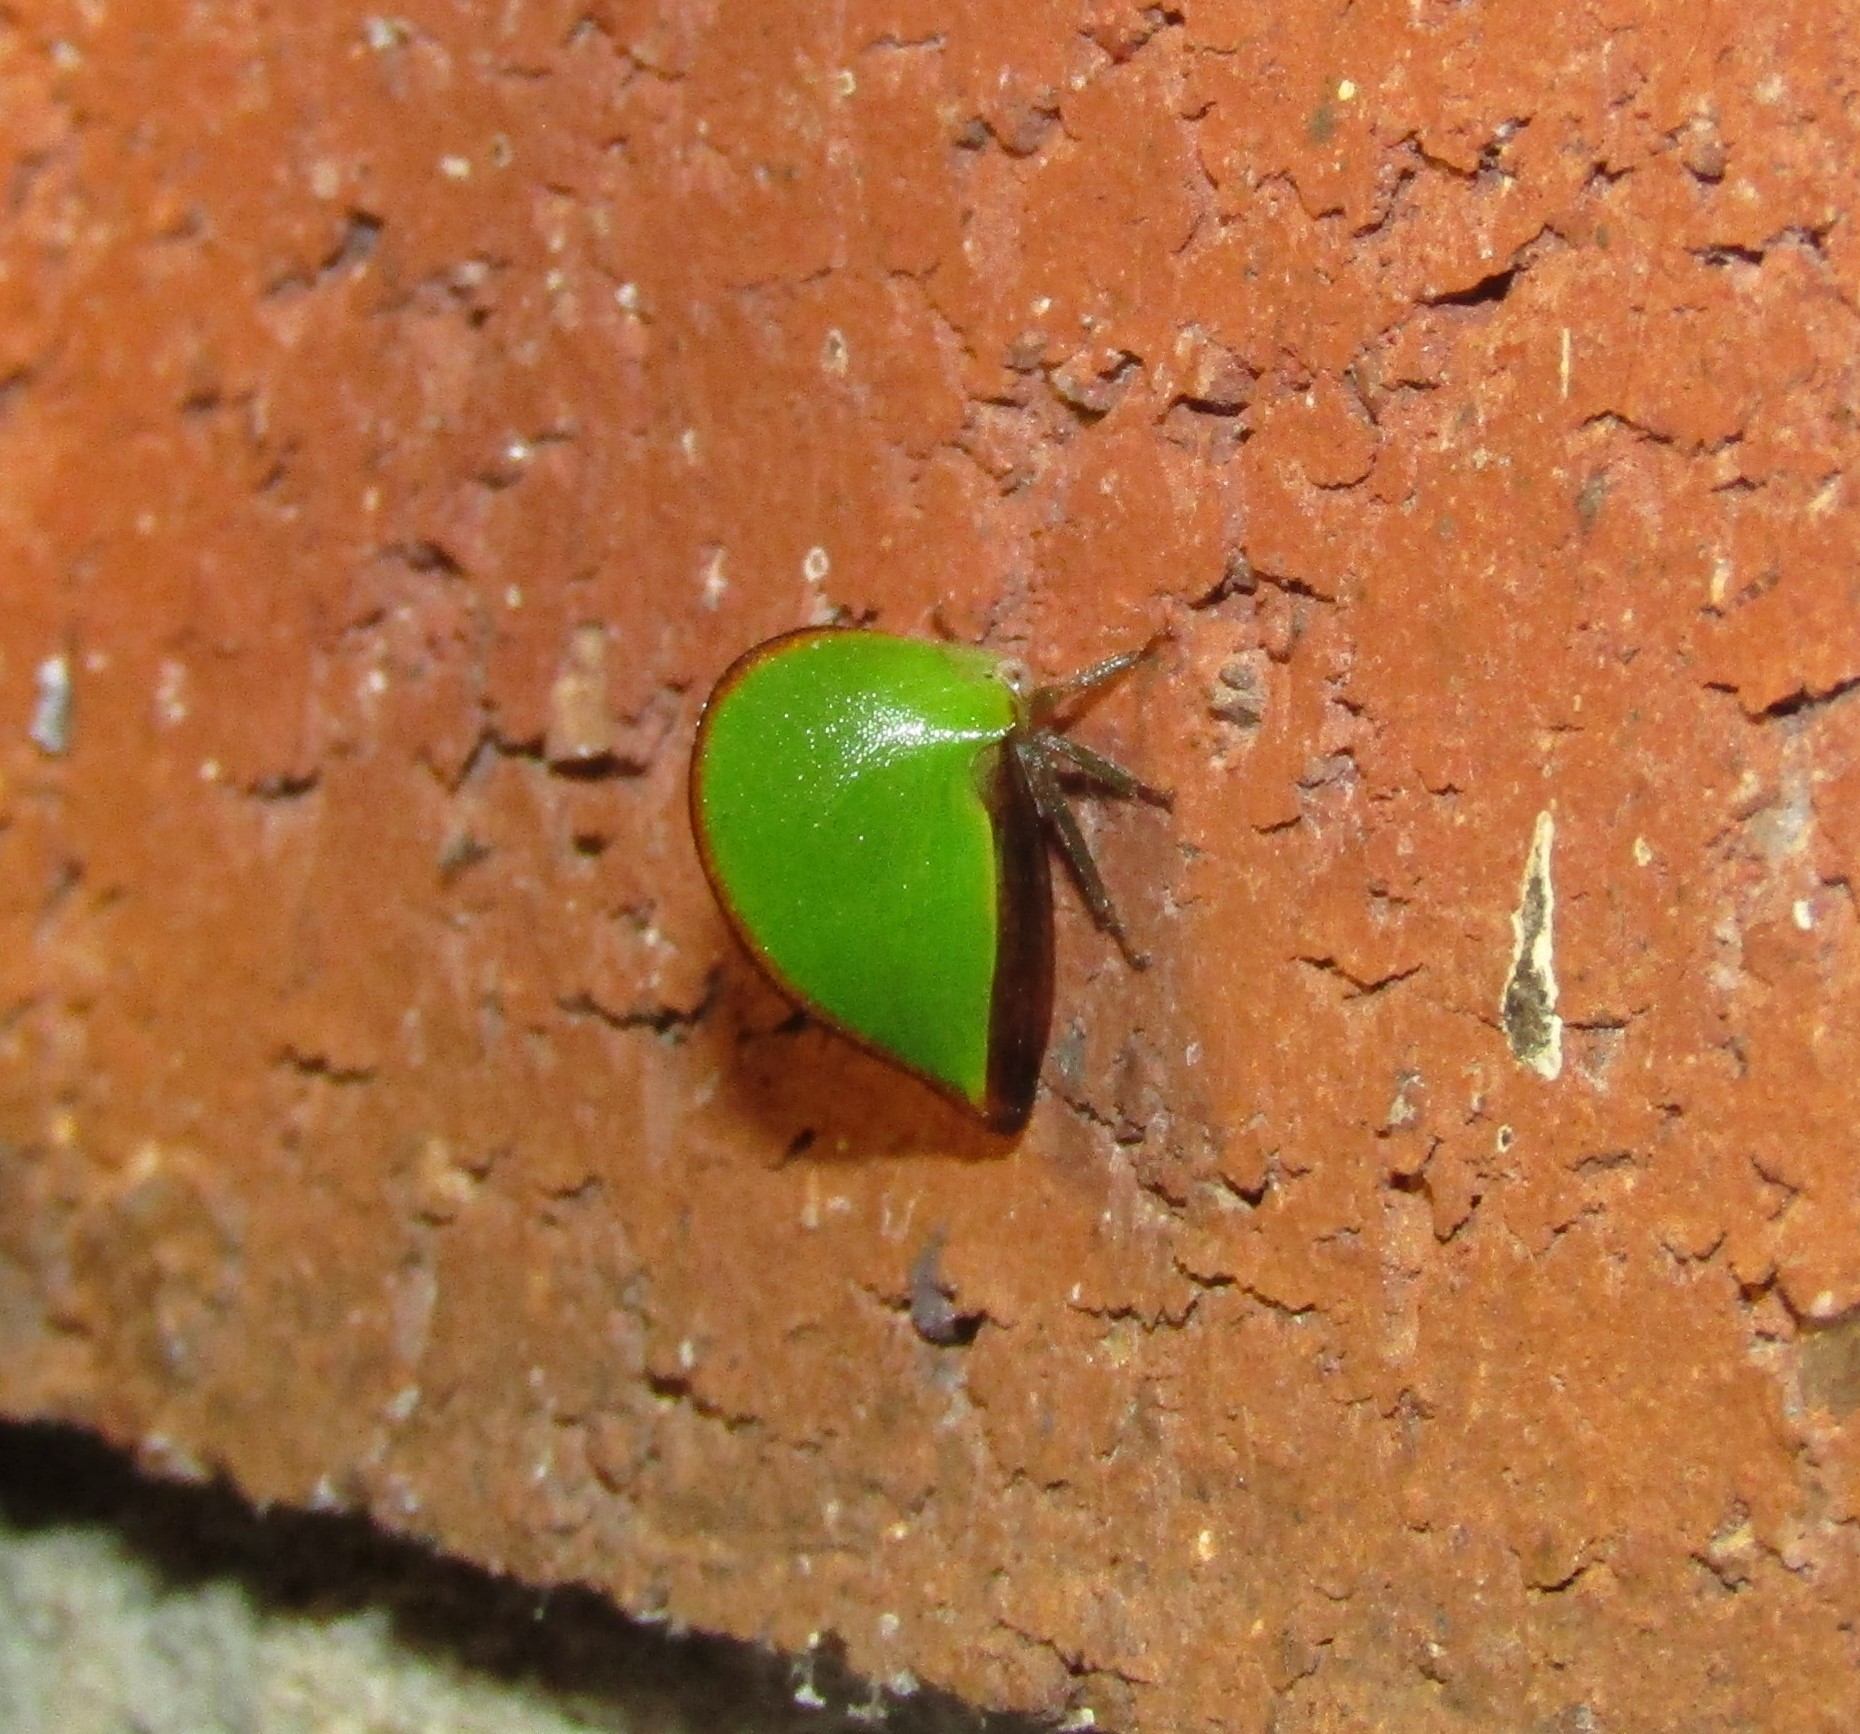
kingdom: Animalia
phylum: Arthropoda
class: Insecta
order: Hemiptera
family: Membracidae
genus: Archasia
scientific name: Archasia belfragei
